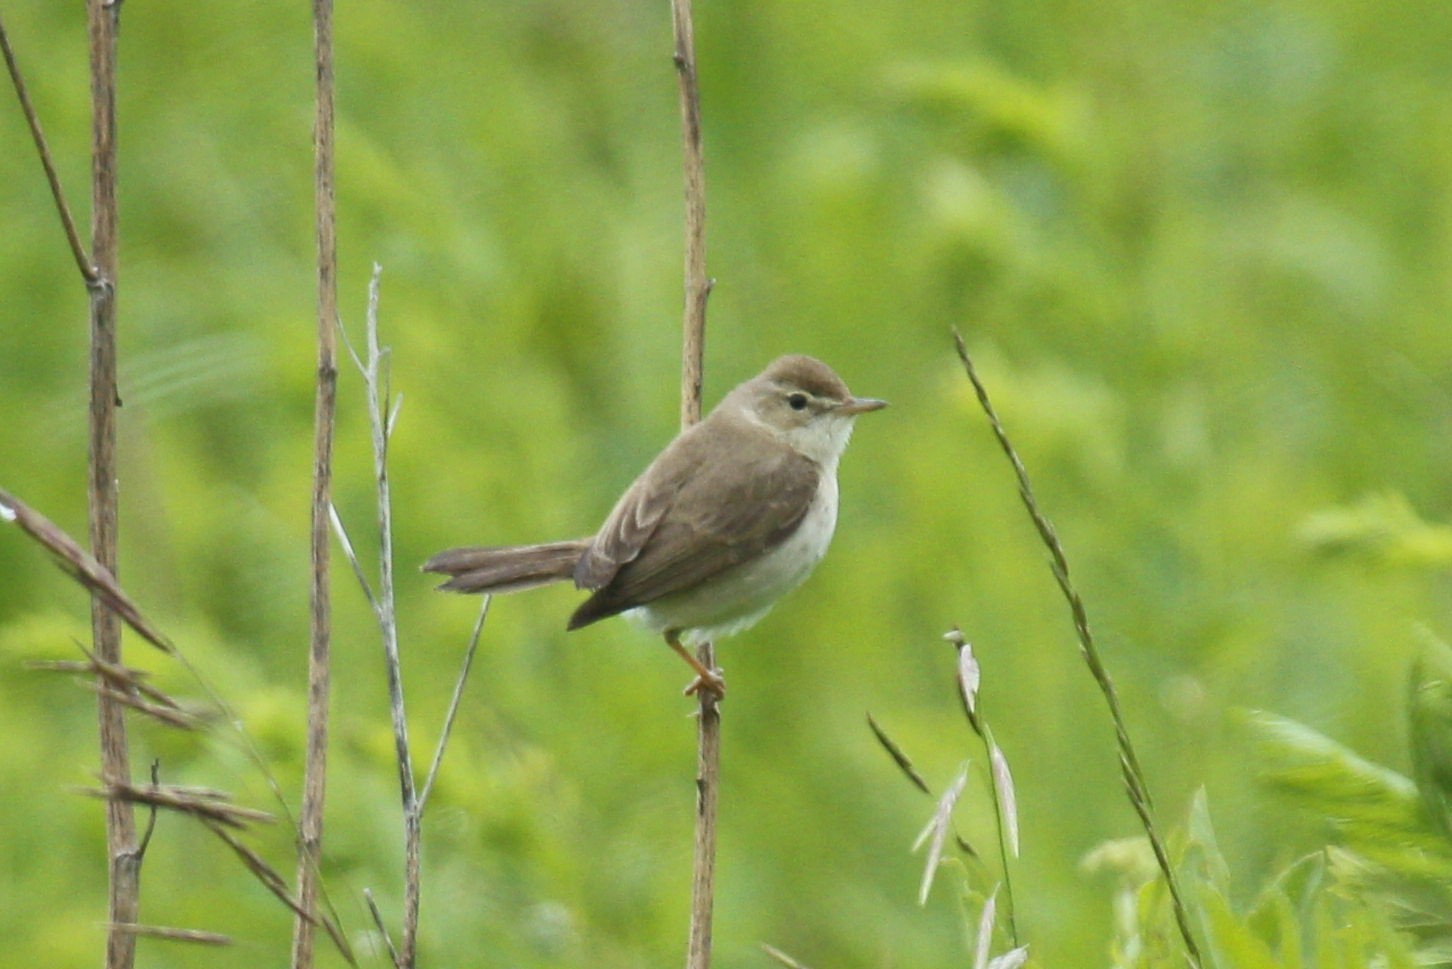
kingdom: Animalia
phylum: Chordata
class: Aves
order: Passeriformes
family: Acrocephalidae
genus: Iduna
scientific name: Iduna caligata
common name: Booted warbler
